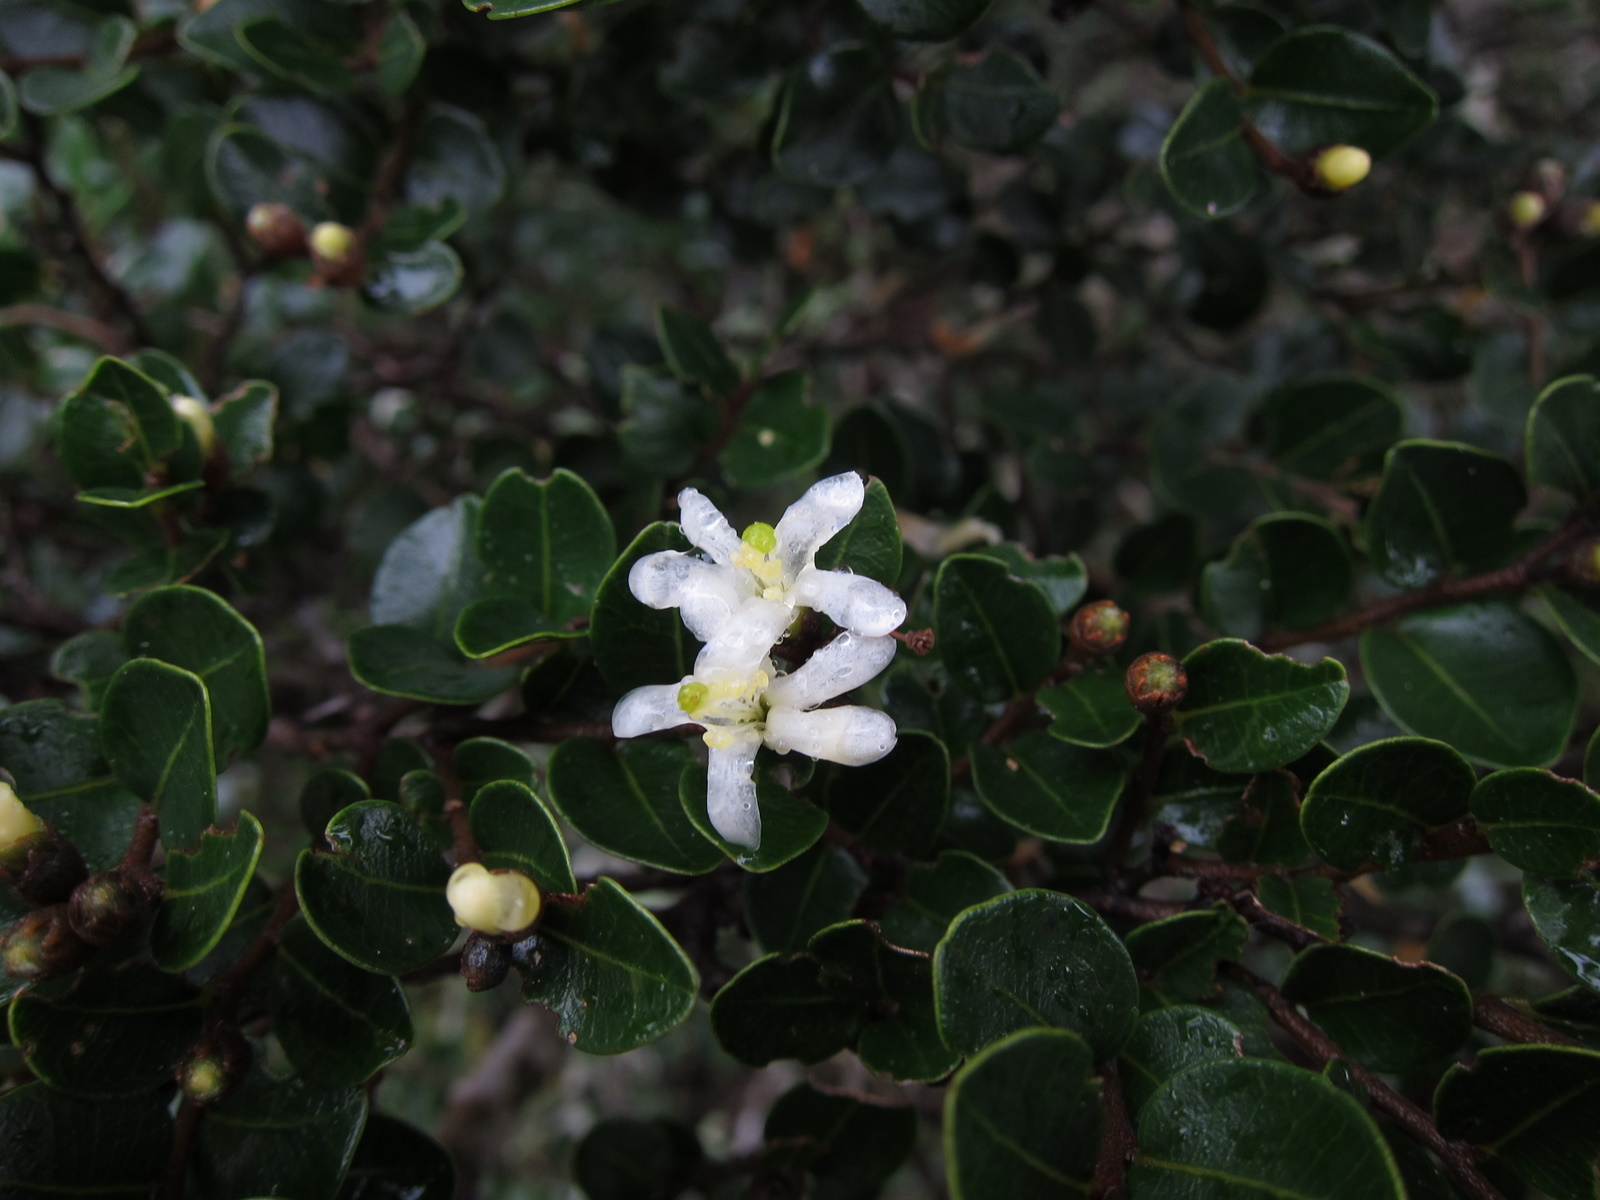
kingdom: Plantae
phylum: Tracheophyta
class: Magnoliopsida
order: Malvales
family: Sarcolaenaceae
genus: Leptolaena
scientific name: Leptolaena pauciflora
